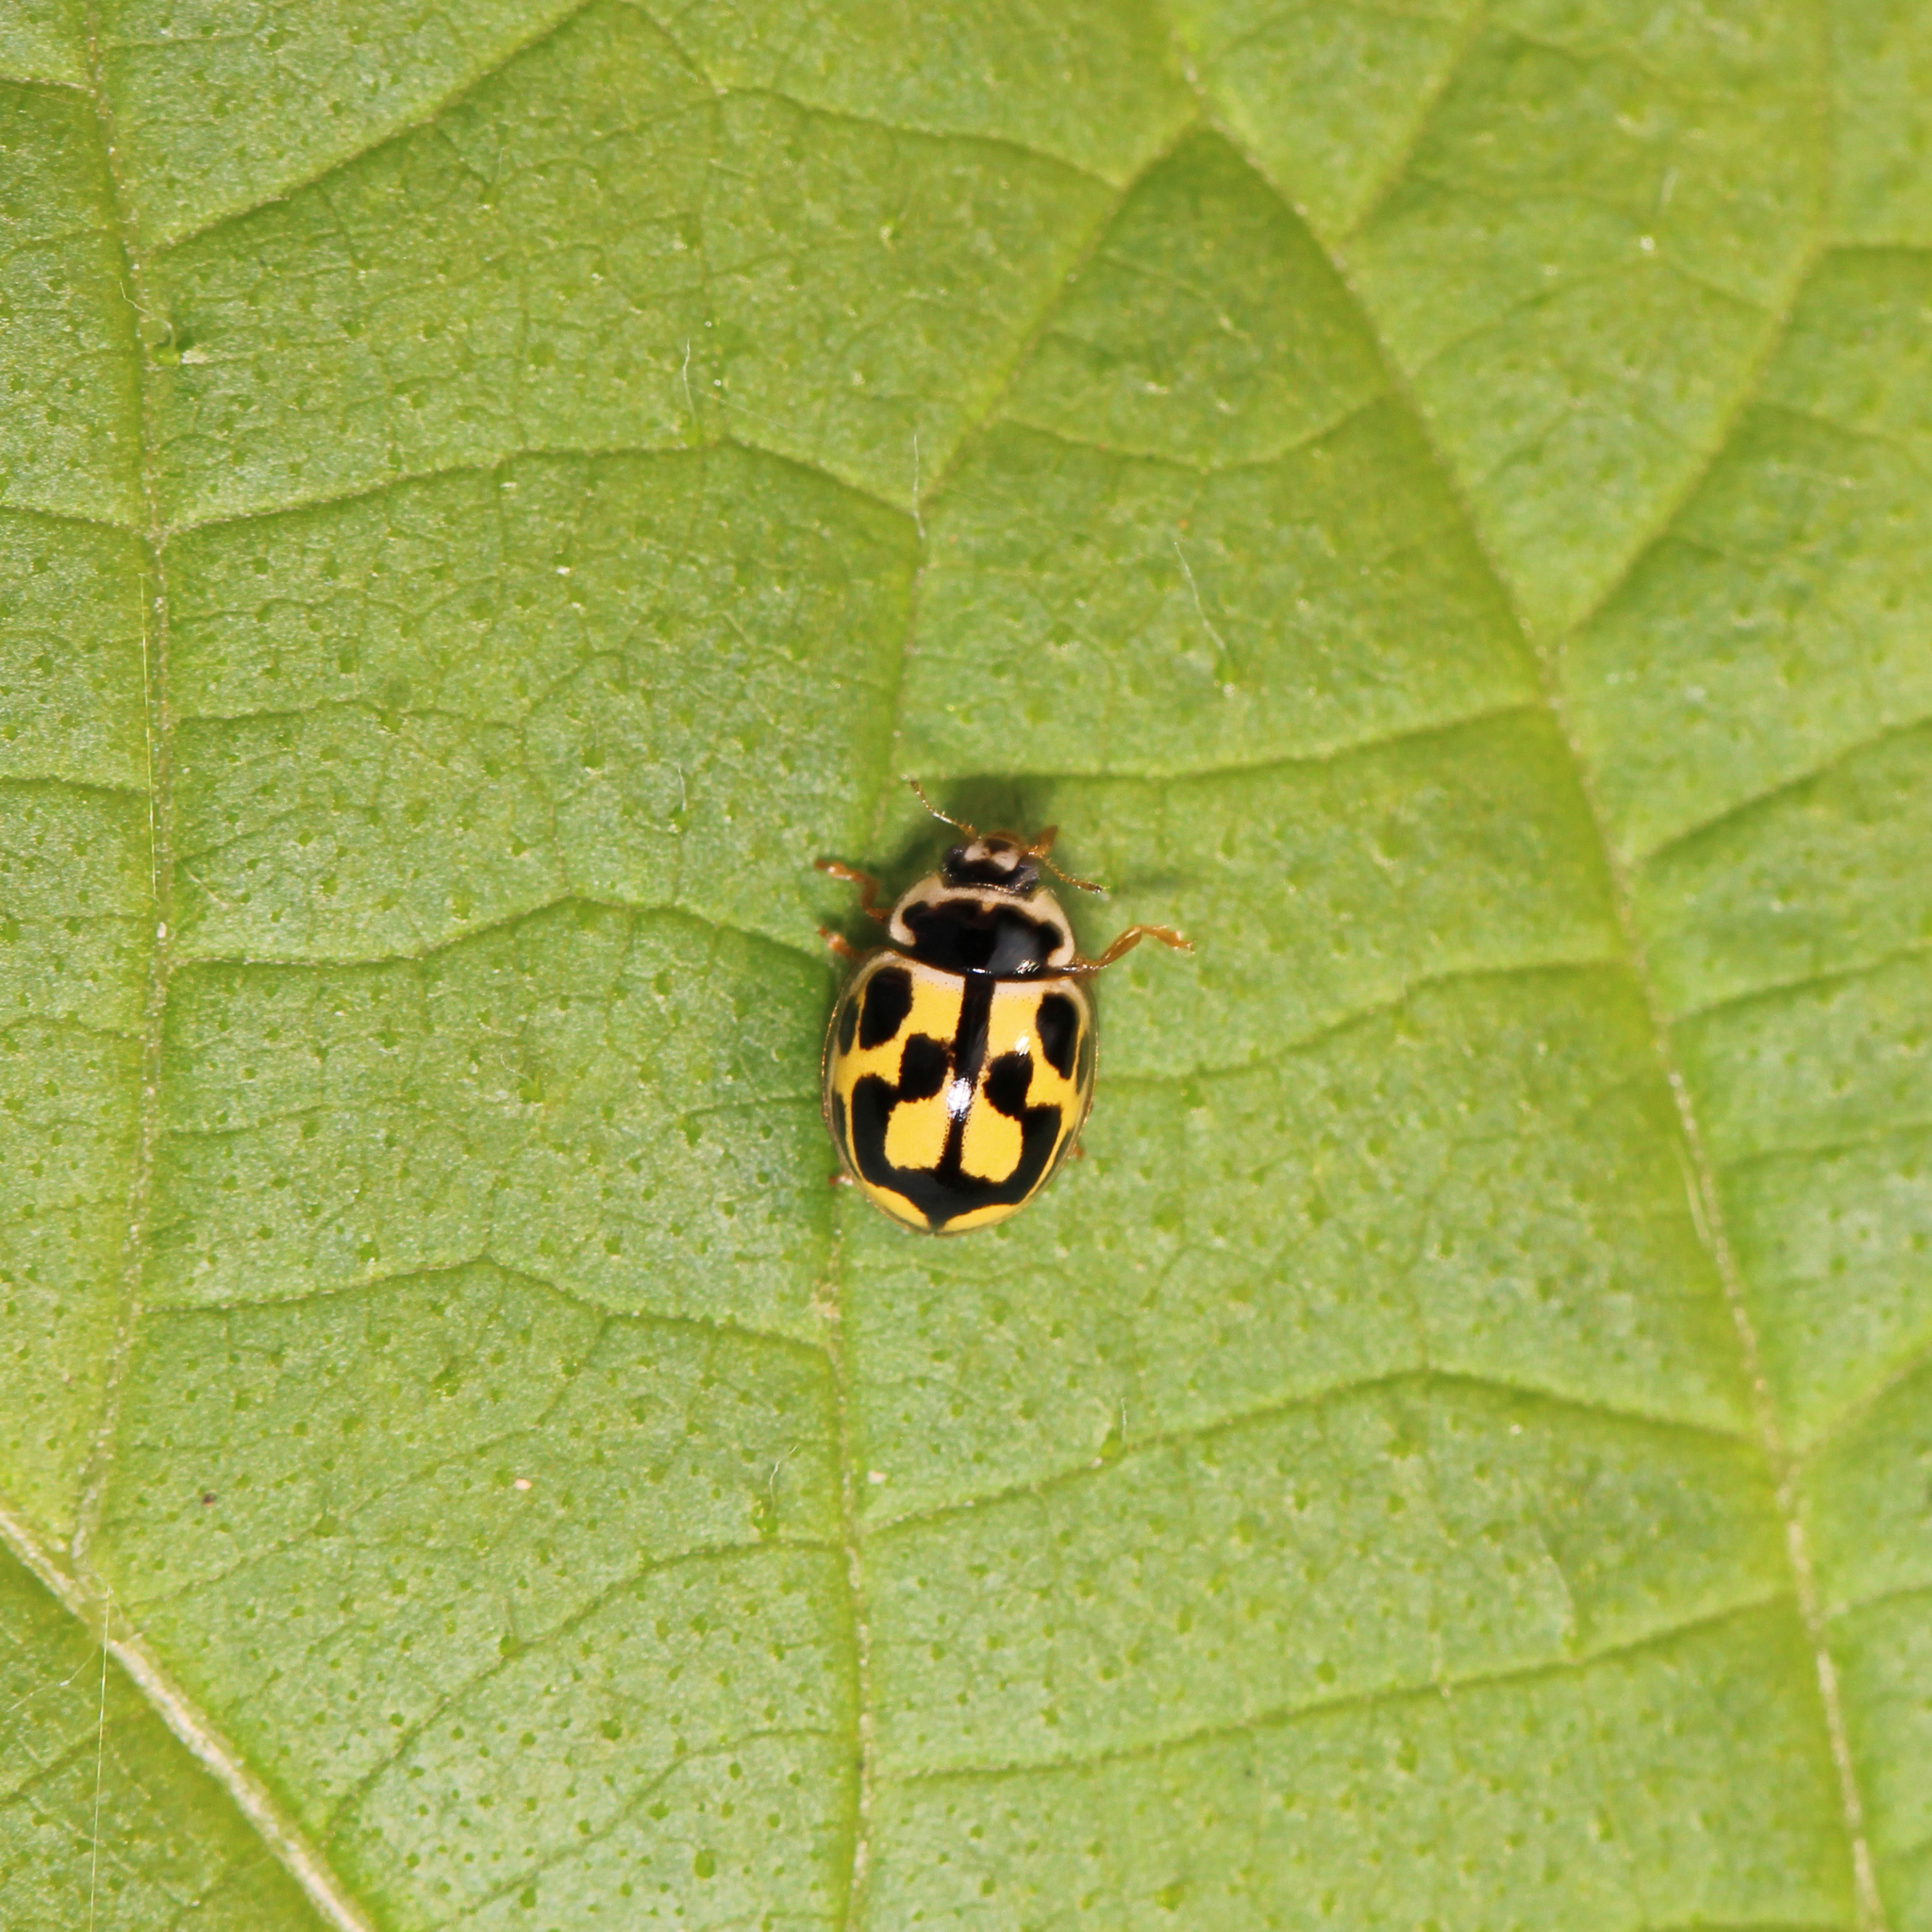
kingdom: Animalia
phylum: Arthropoda
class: Insecta
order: Coleoptera
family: Coccinellidae
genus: Propylaea
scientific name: Propylaea quatuordecimpunctata
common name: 14-spotted ladybird beetle
